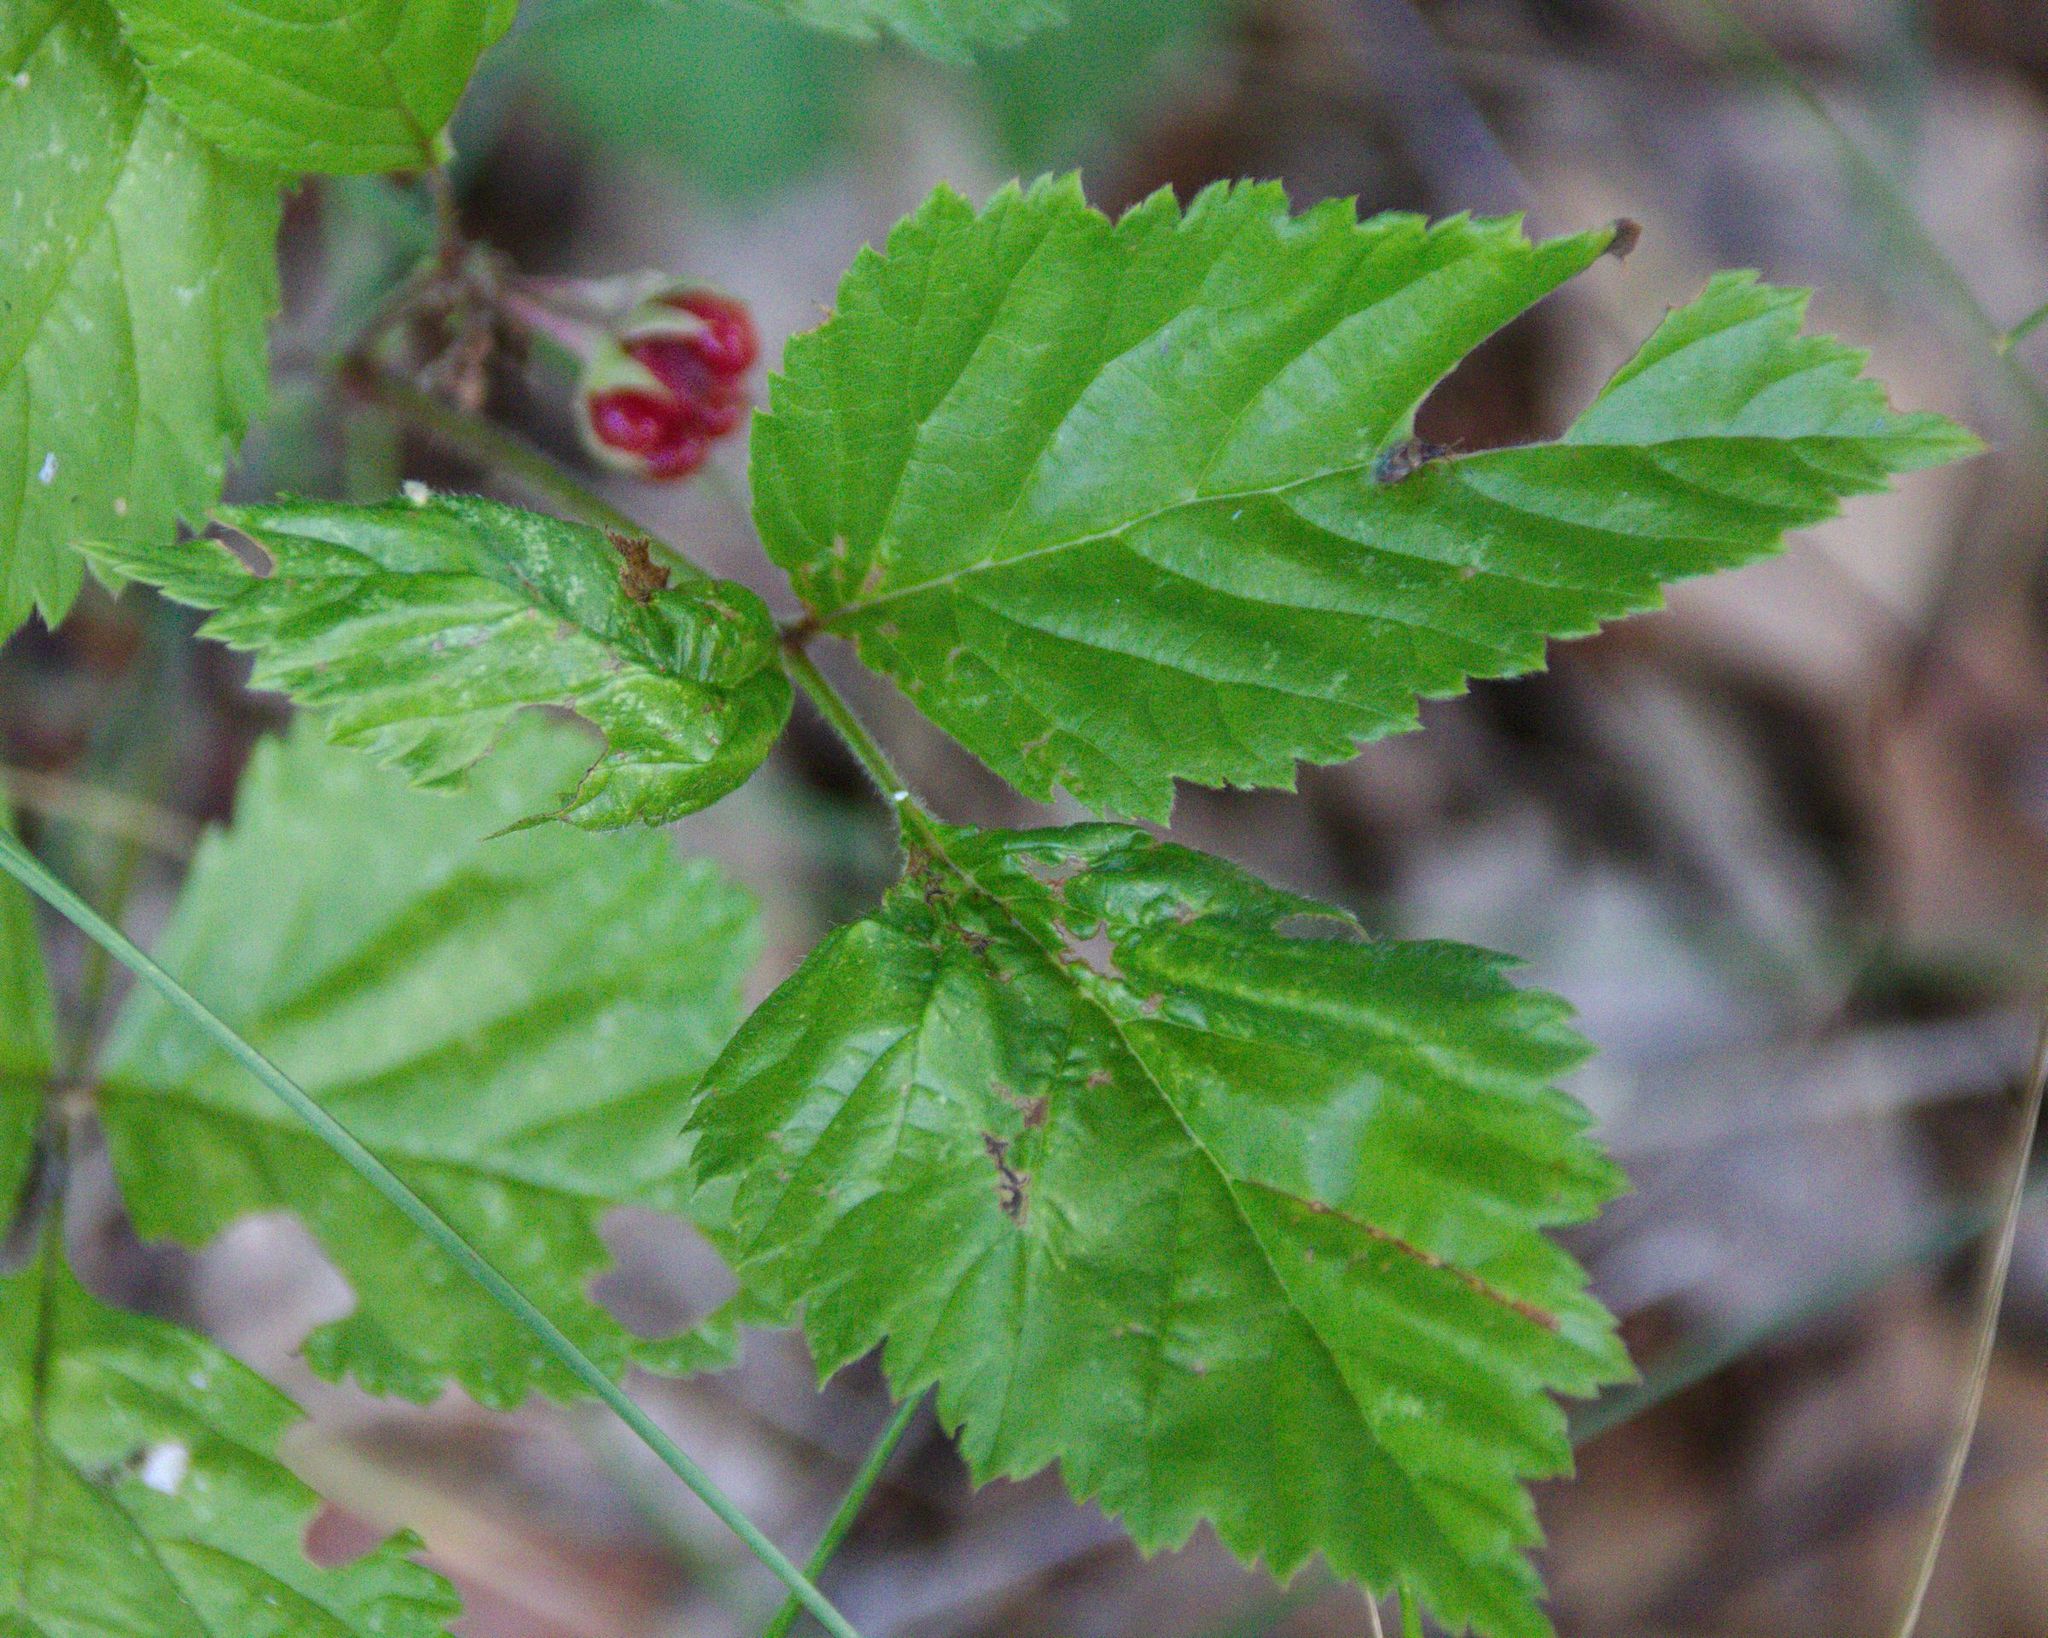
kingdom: Plantae
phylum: Tracheophyta
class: Magnoliopsida
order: Rosales
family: Rosaceae
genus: Rubus
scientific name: Rubus saxatilis
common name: Stone bramble
